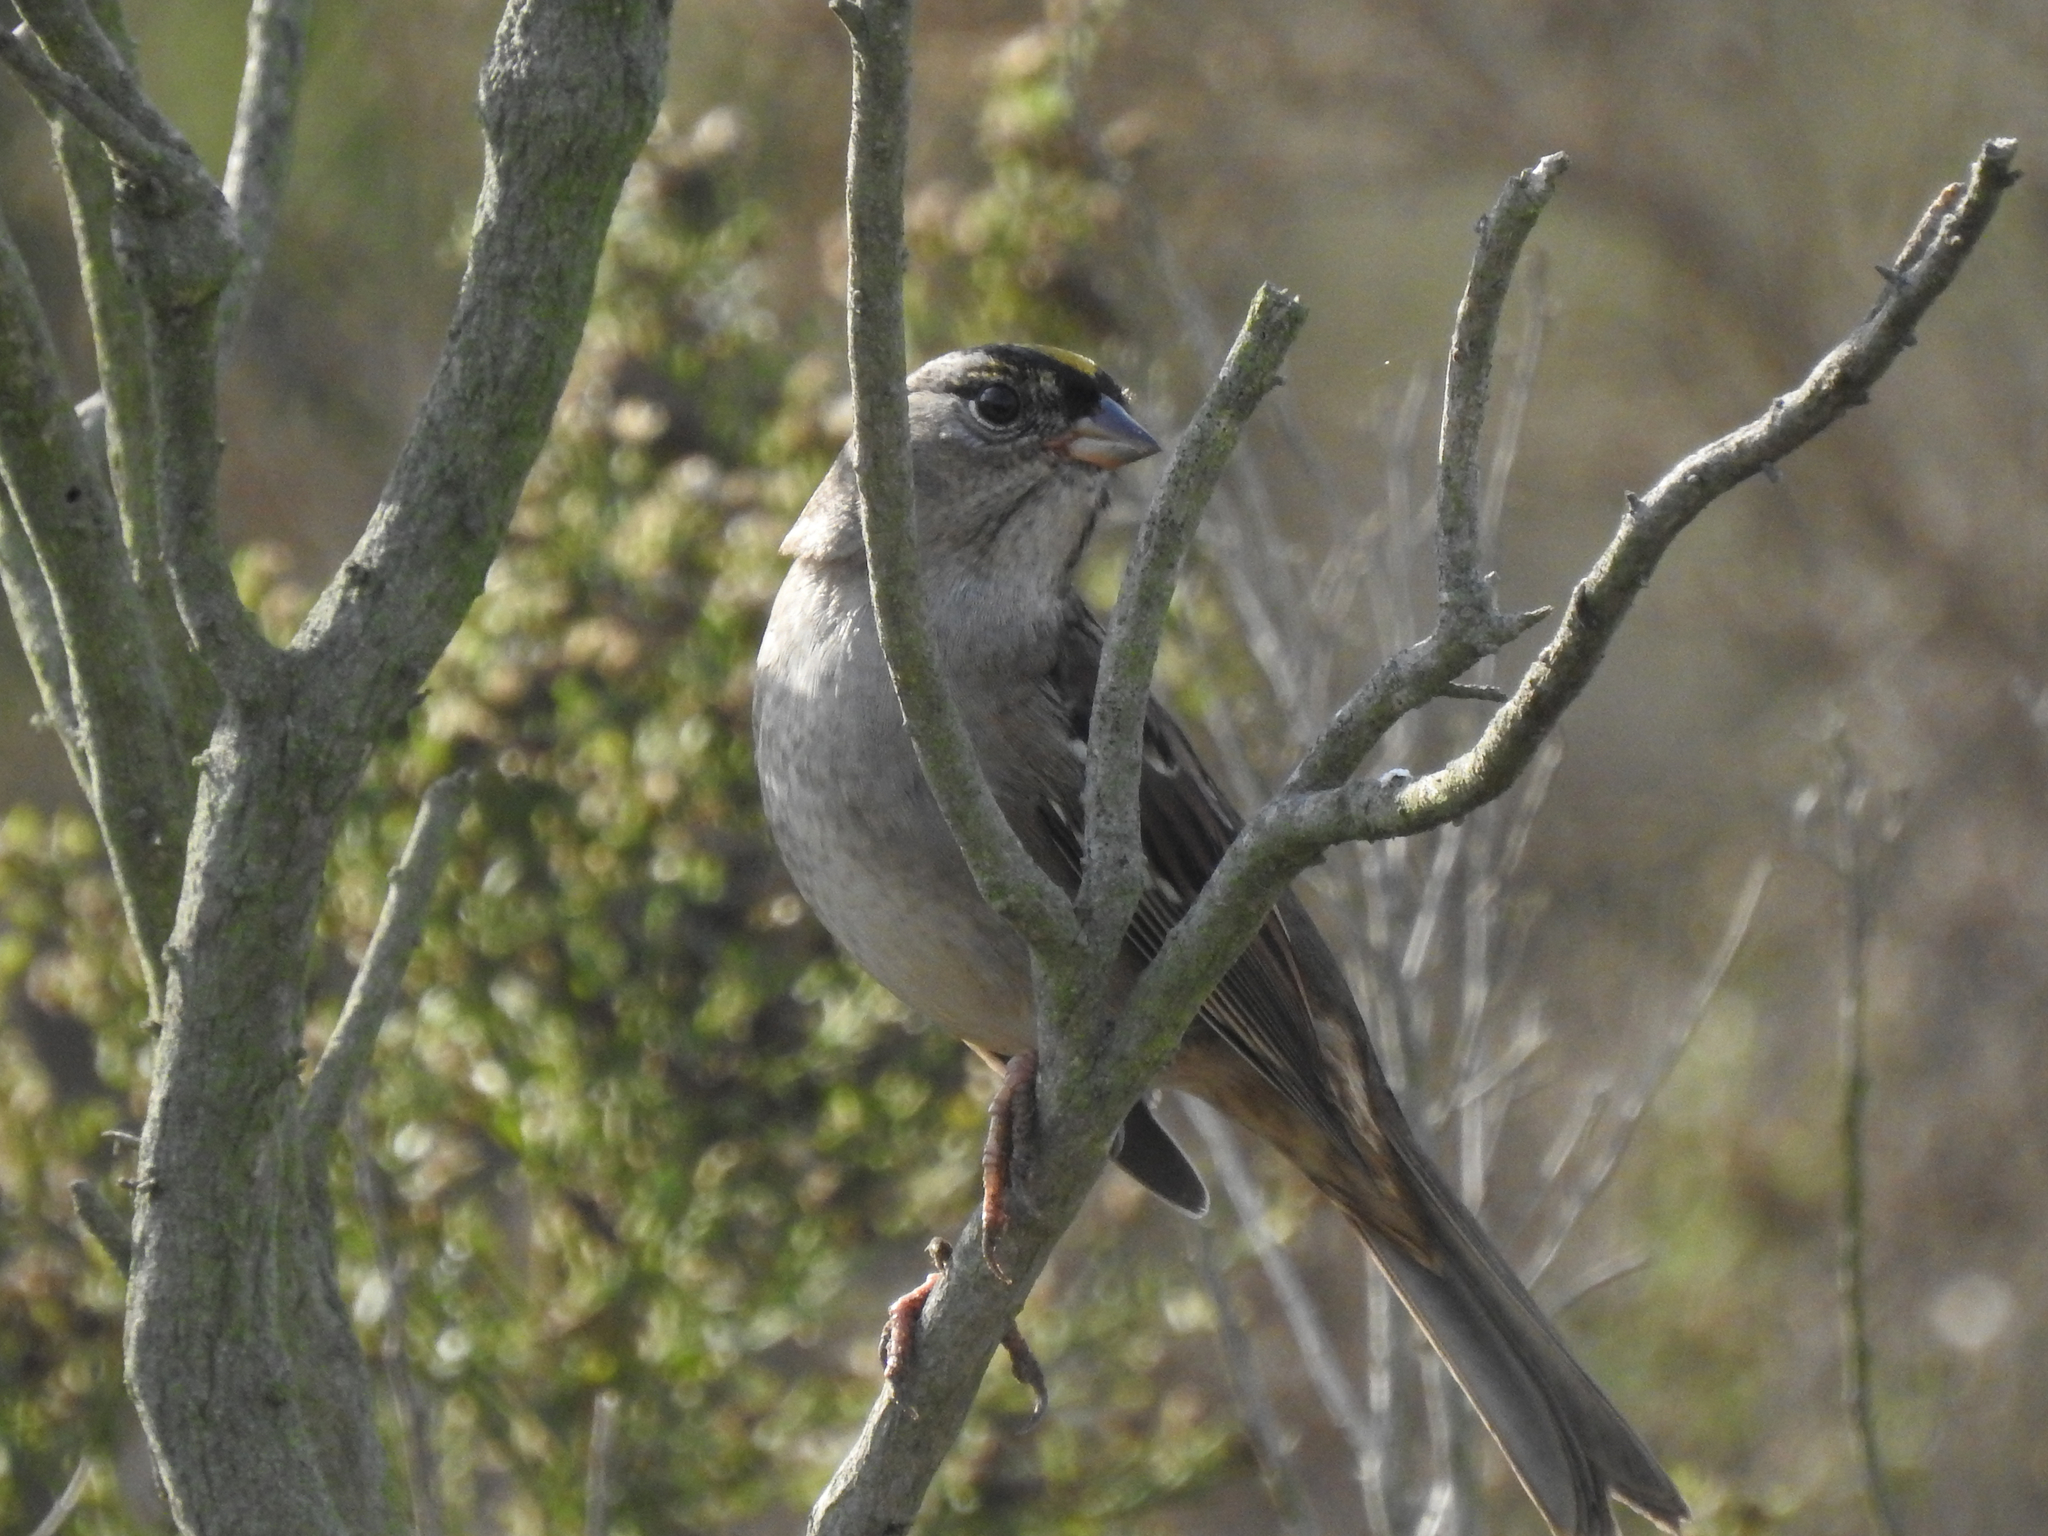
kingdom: Animalia
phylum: Chordata
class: Aves
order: Passeriformes
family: Passerellidae
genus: Zonotrichia
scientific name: Zonotrichia atricapilla
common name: Golden-crowned sparrow
